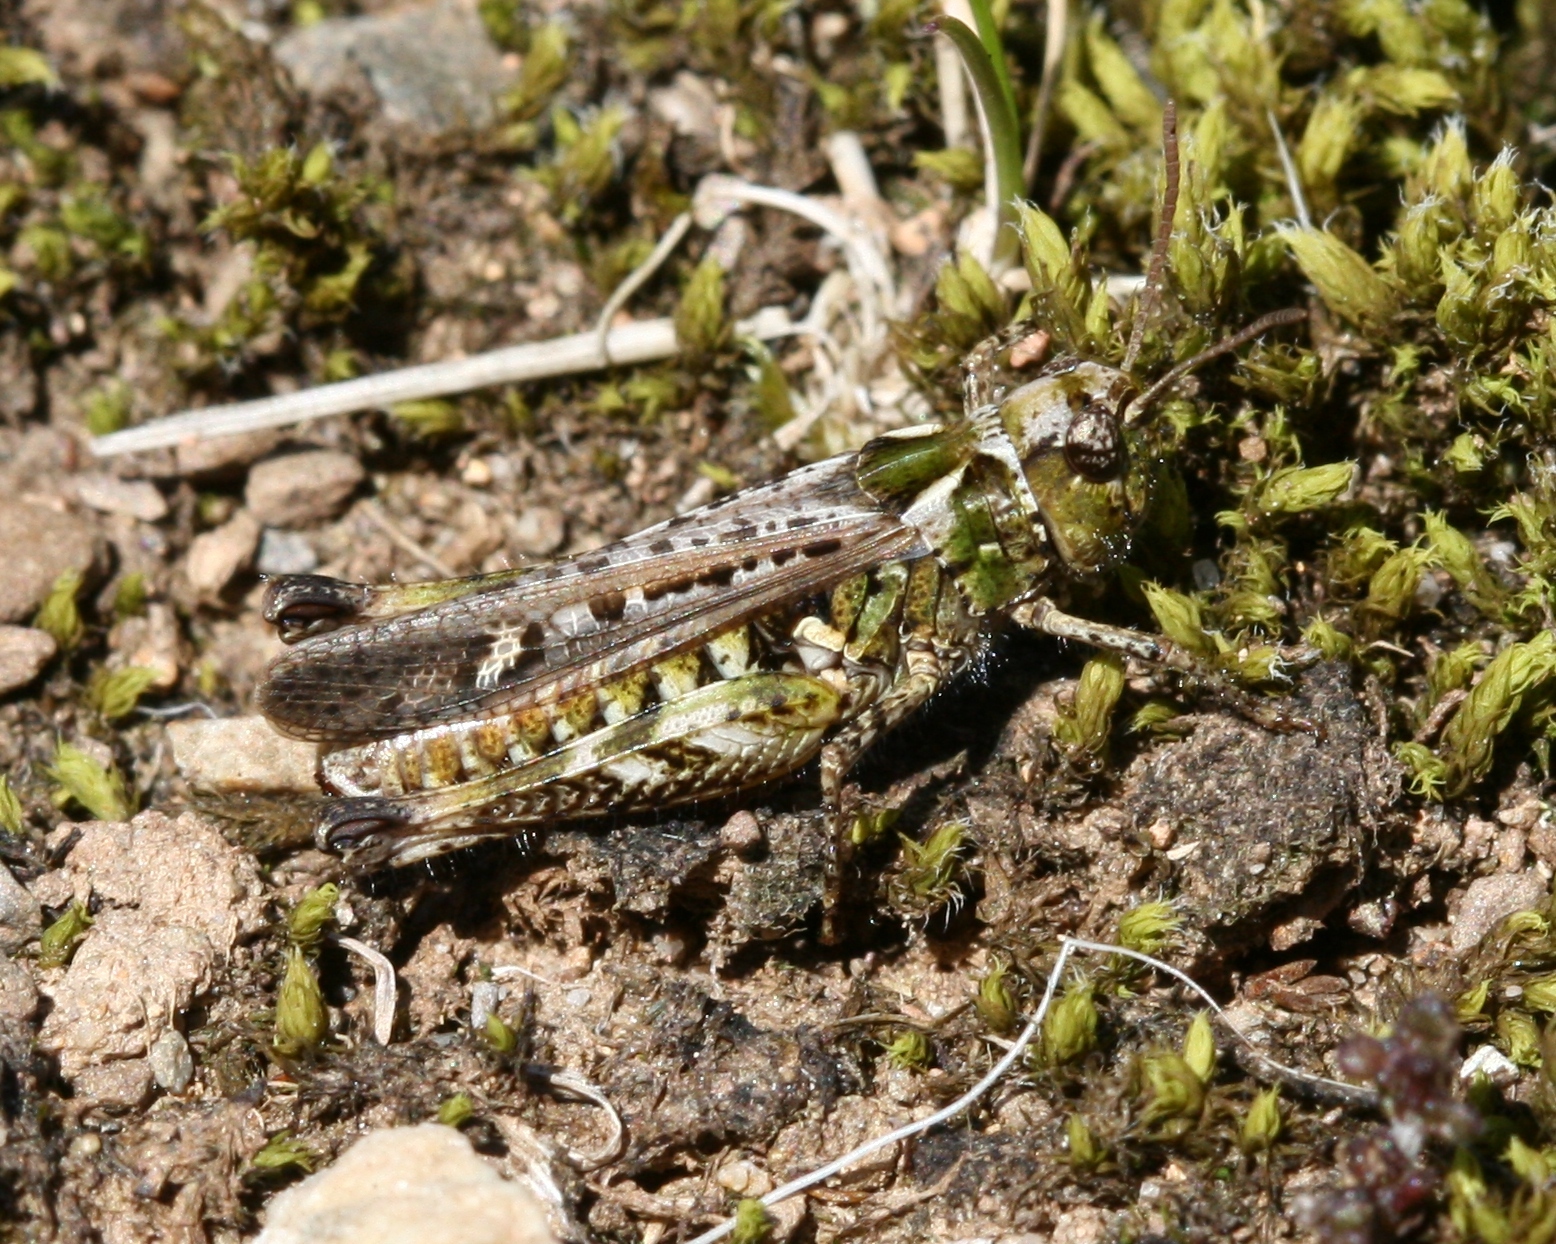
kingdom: Animalia
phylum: Arthropoda
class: Insecta
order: Orthoptera
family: Acrididae
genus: Myrmeleotettix
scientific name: Myrmeleotettix maculatus
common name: Mottled grasshopper
